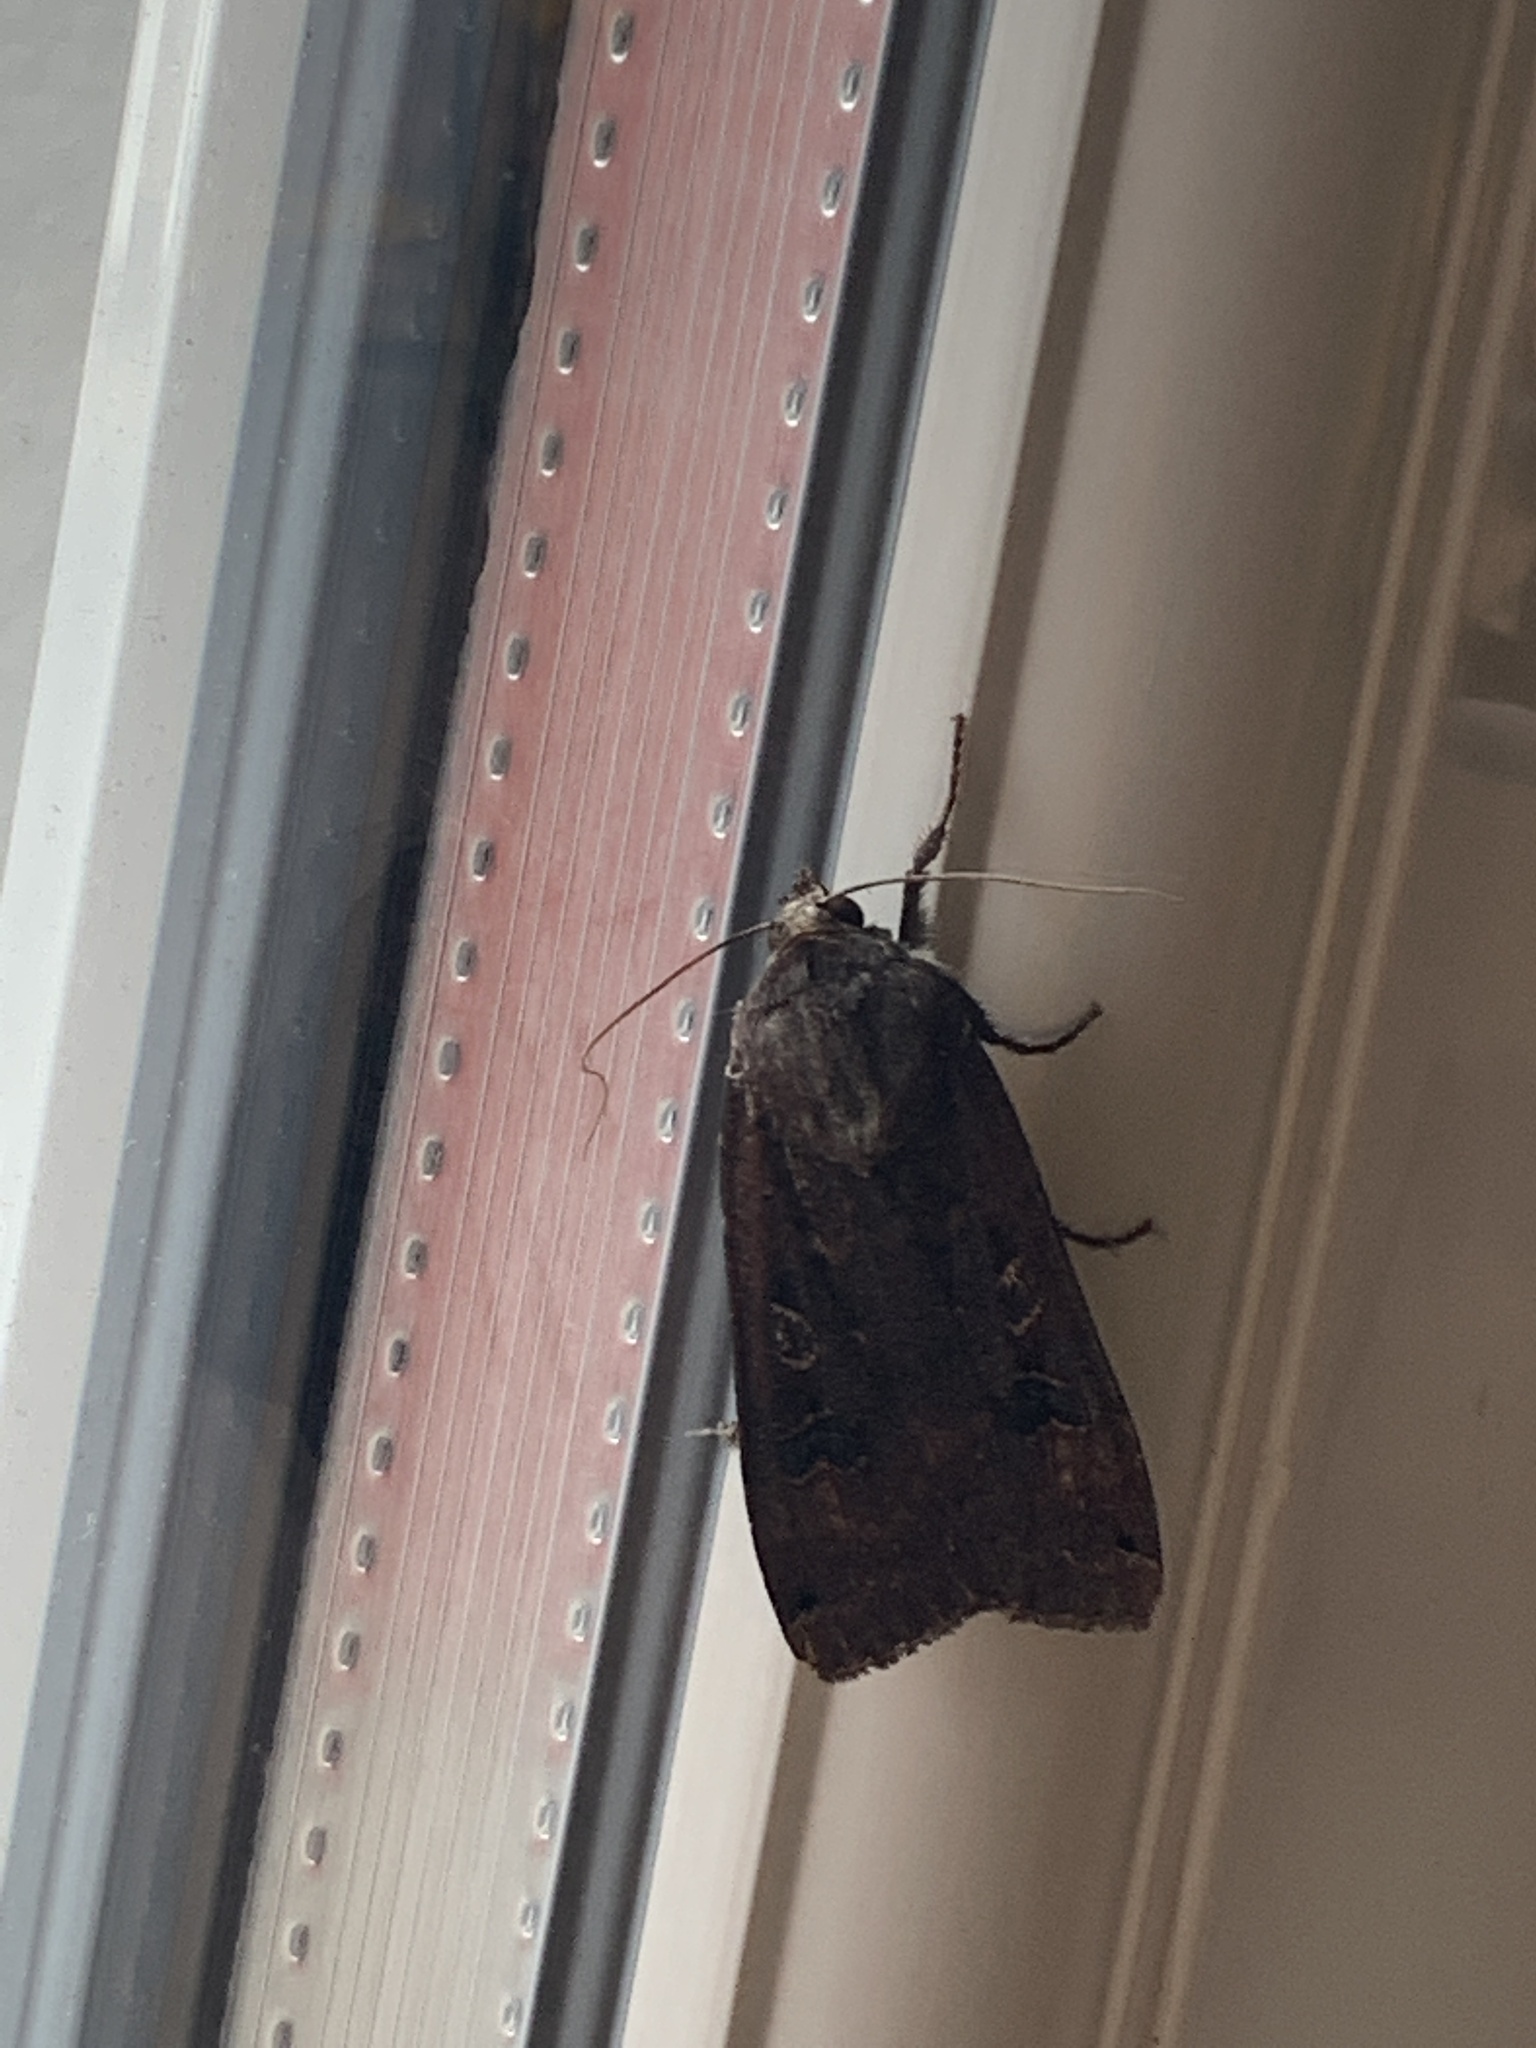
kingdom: Animalia
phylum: Arthropoda
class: Insecta
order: Lepidoptera
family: Noctuidae
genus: Noctua
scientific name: Noctua pronuba
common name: Large yellow underwing
